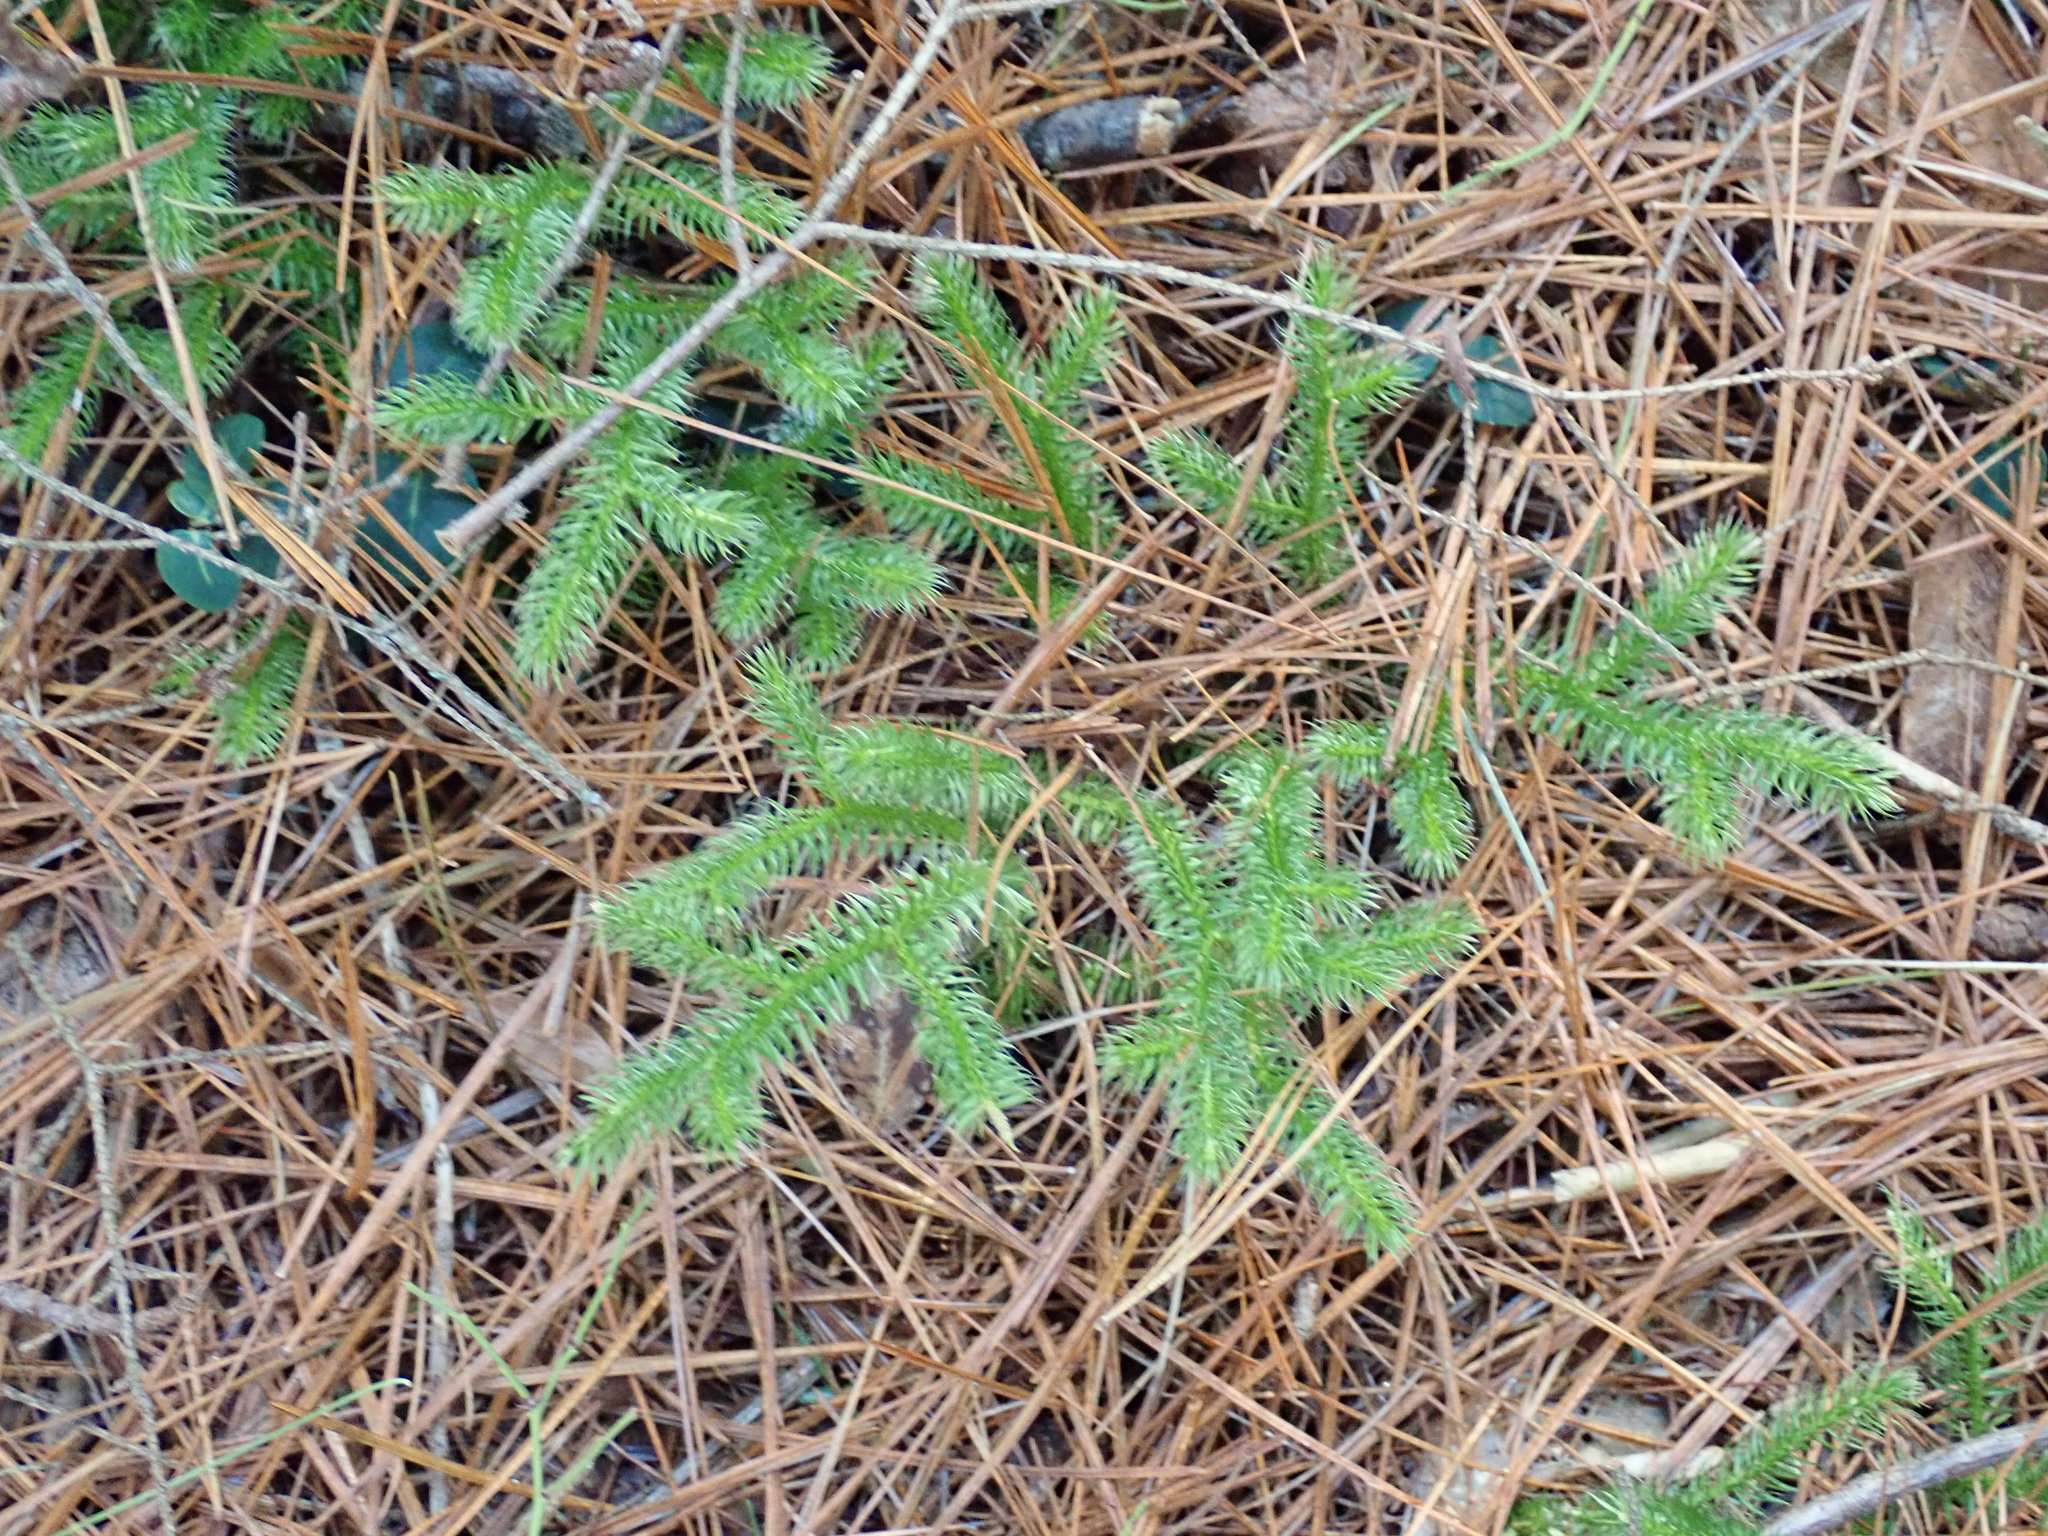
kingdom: Plantae
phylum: Tracheophyta
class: Lycopodiopsida
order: Lycopodiales
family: Lycopodiaceae
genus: Lycopodium
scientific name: Lycopodium clavatum
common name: Stag's-horn clubmoss
